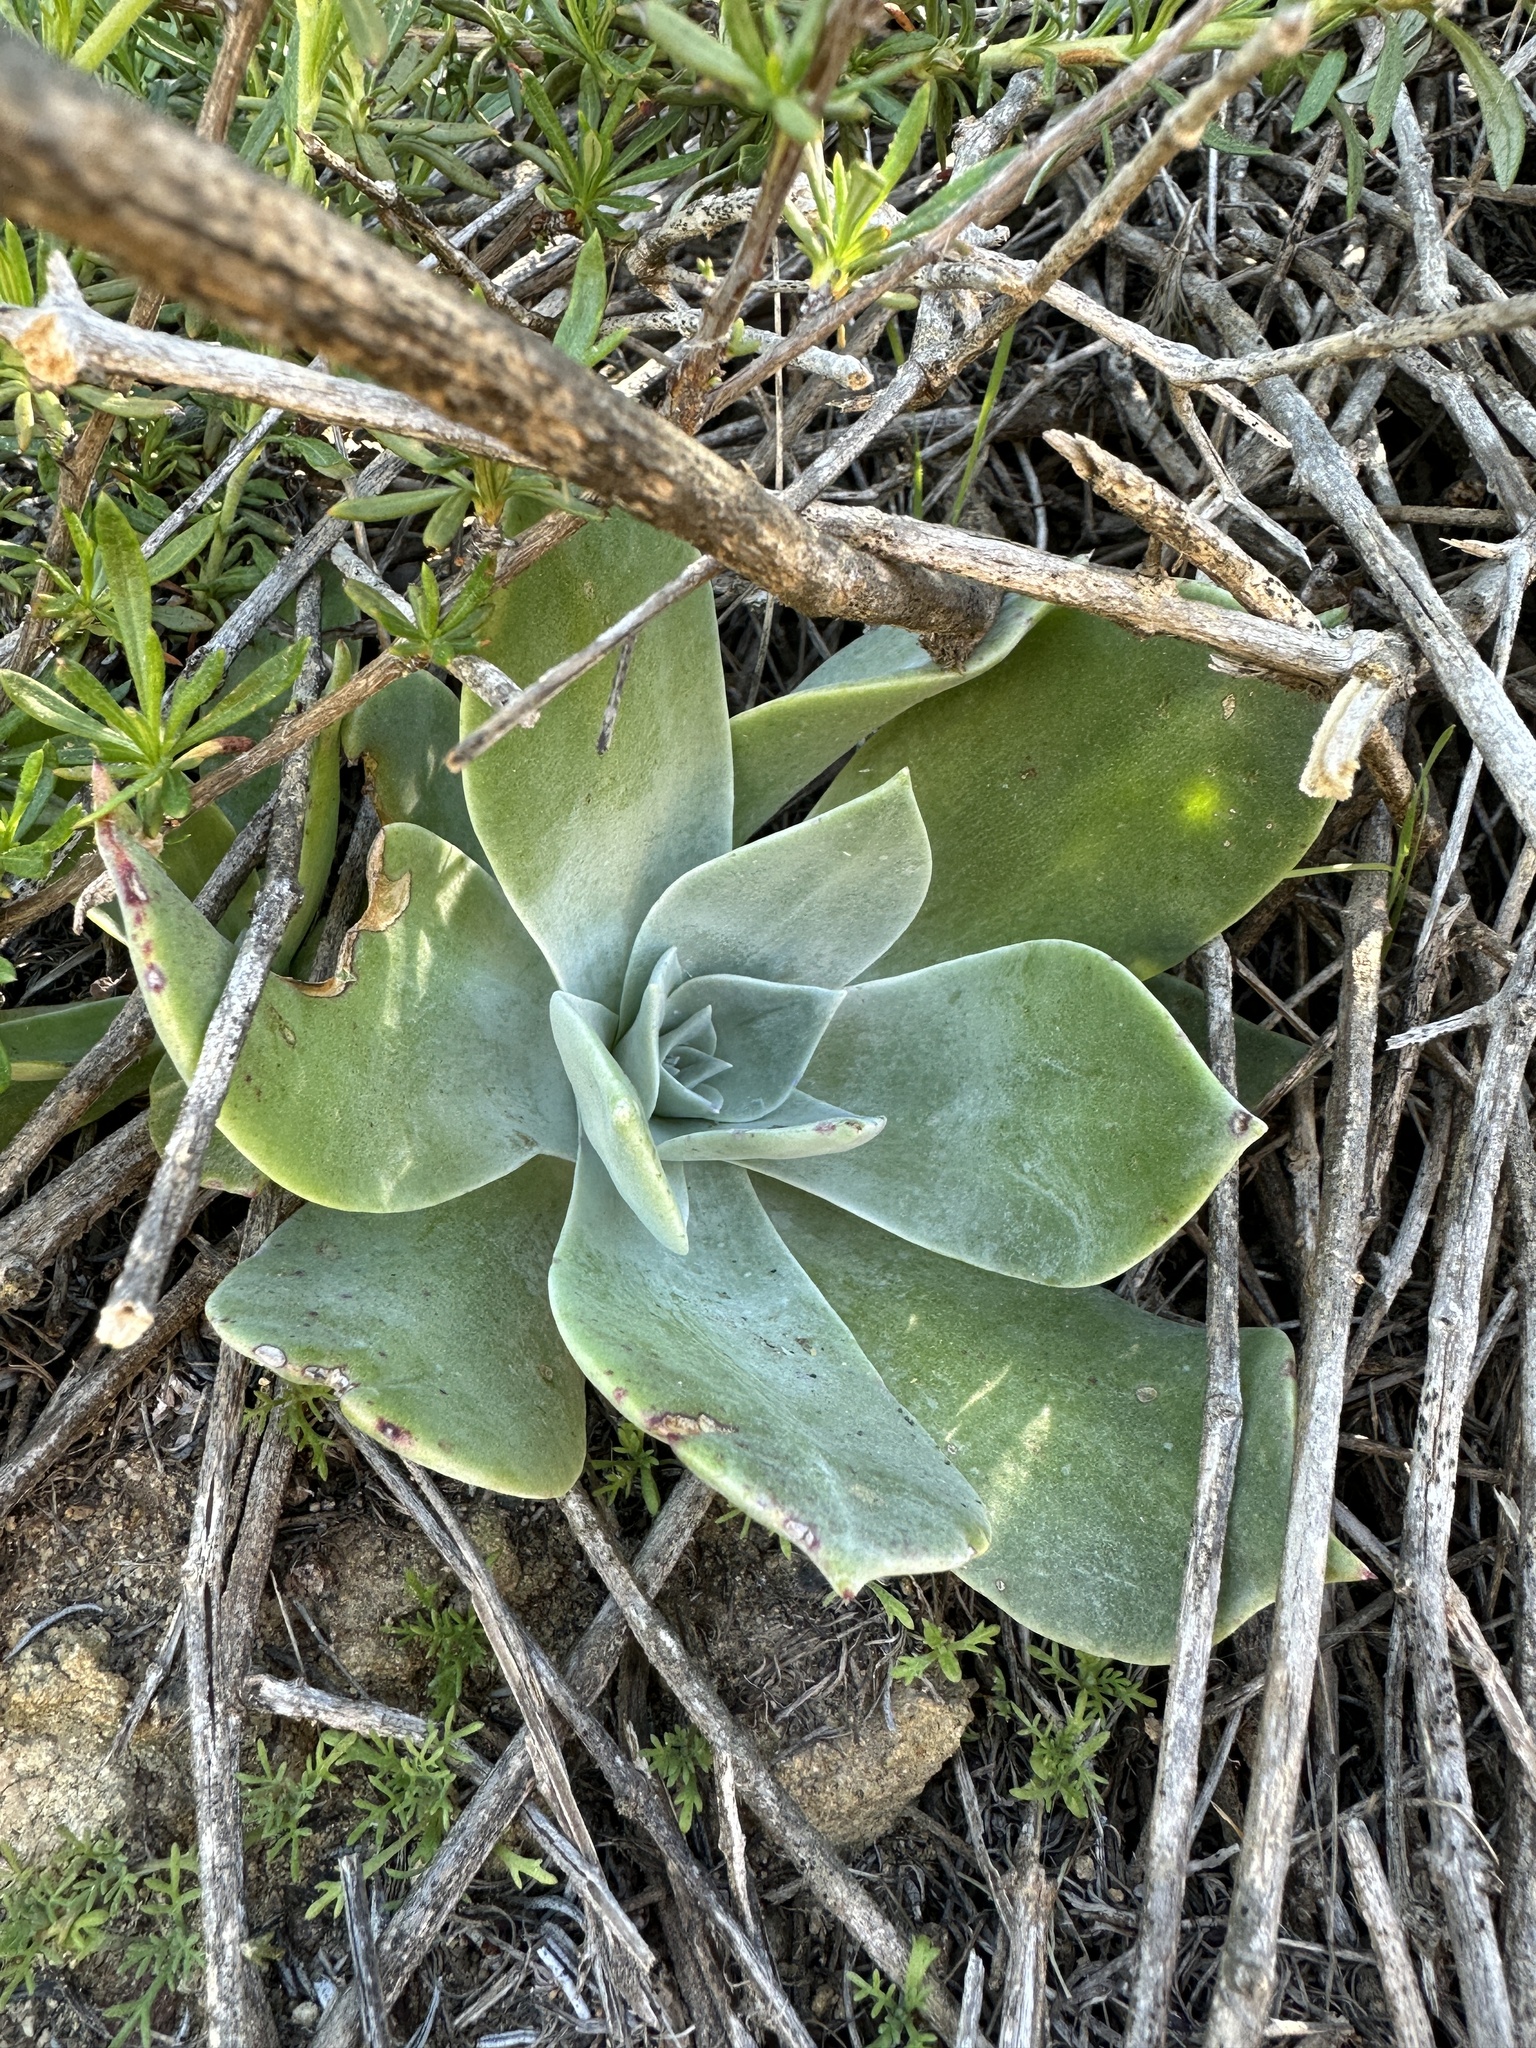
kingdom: Plantae
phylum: Tracheophyta
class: Magnoliopsida
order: Saxifragales
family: Crassulaceae
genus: Dudleya
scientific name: Dudleya pulverulenta
